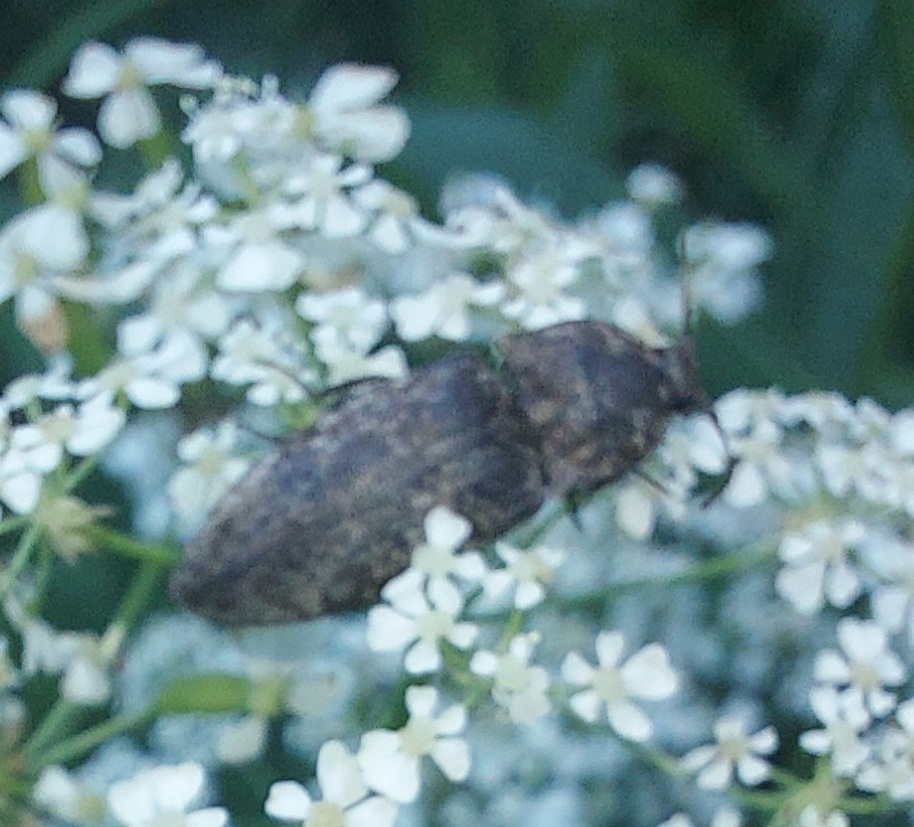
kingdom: Animalia
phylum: Arthropoda
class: Insecta
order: Coleoptera
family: Elateridae
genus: Agrypnus
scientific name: Agrypnus murinus
